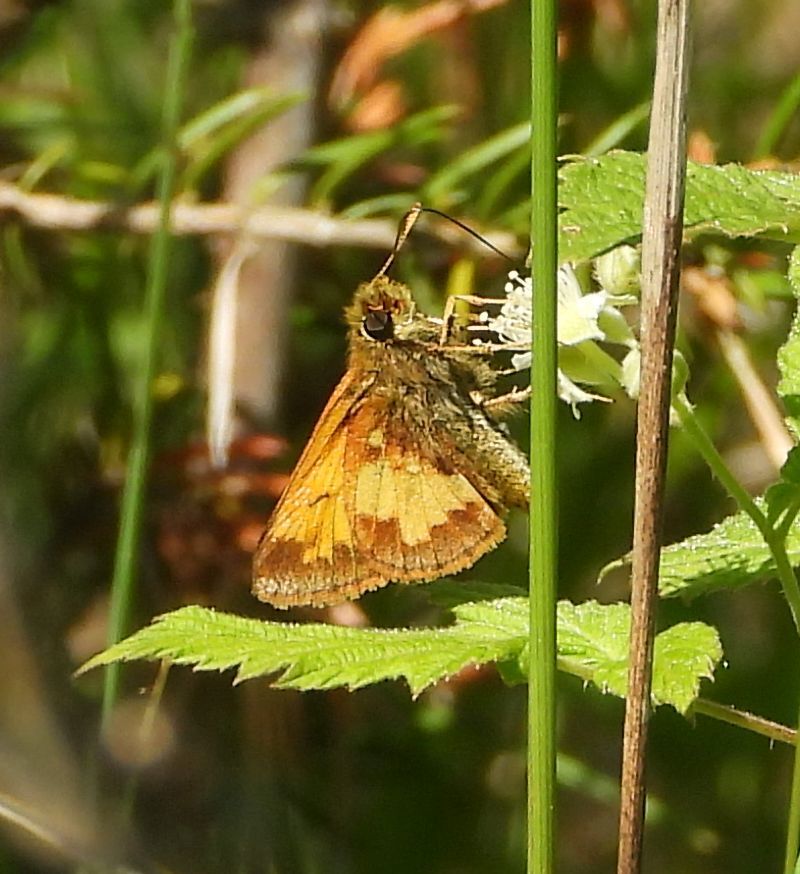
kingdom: Animalia
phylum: Arthropoda
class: Insecta
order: Lepidoptera
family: Hesperiidae
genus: Lon
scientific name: Lon hobomok
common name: Hobomok skipper
